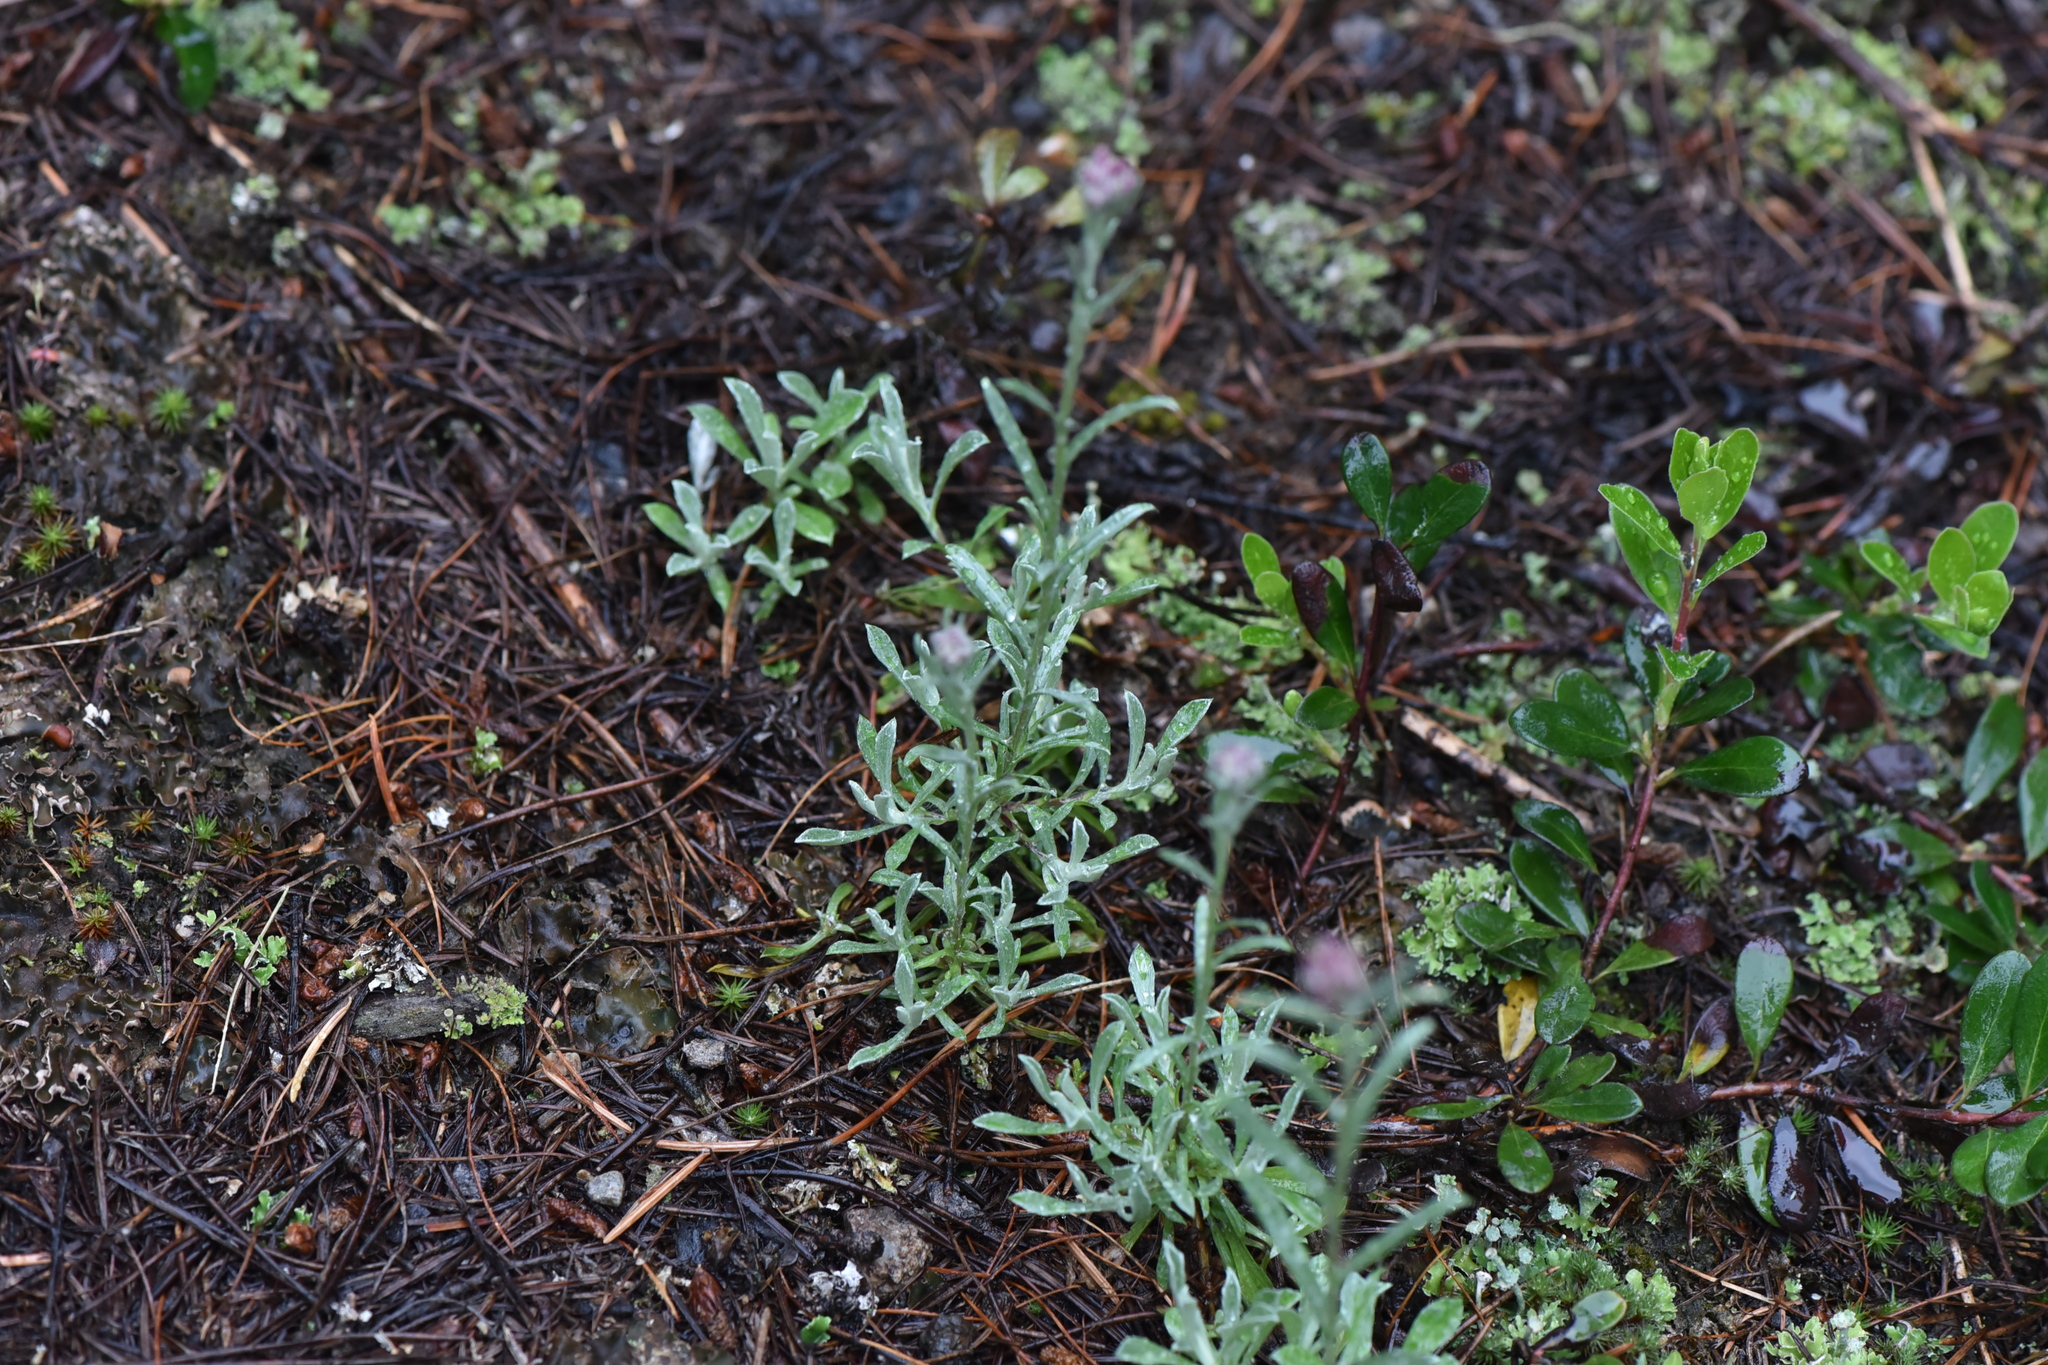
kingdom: Plantae
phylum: Tracheophyta
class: Magnoliopsida
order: Asterales
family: Asteraceae
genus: Antennaria
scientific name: Antennaria rosea
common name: Rosy pussytoes
